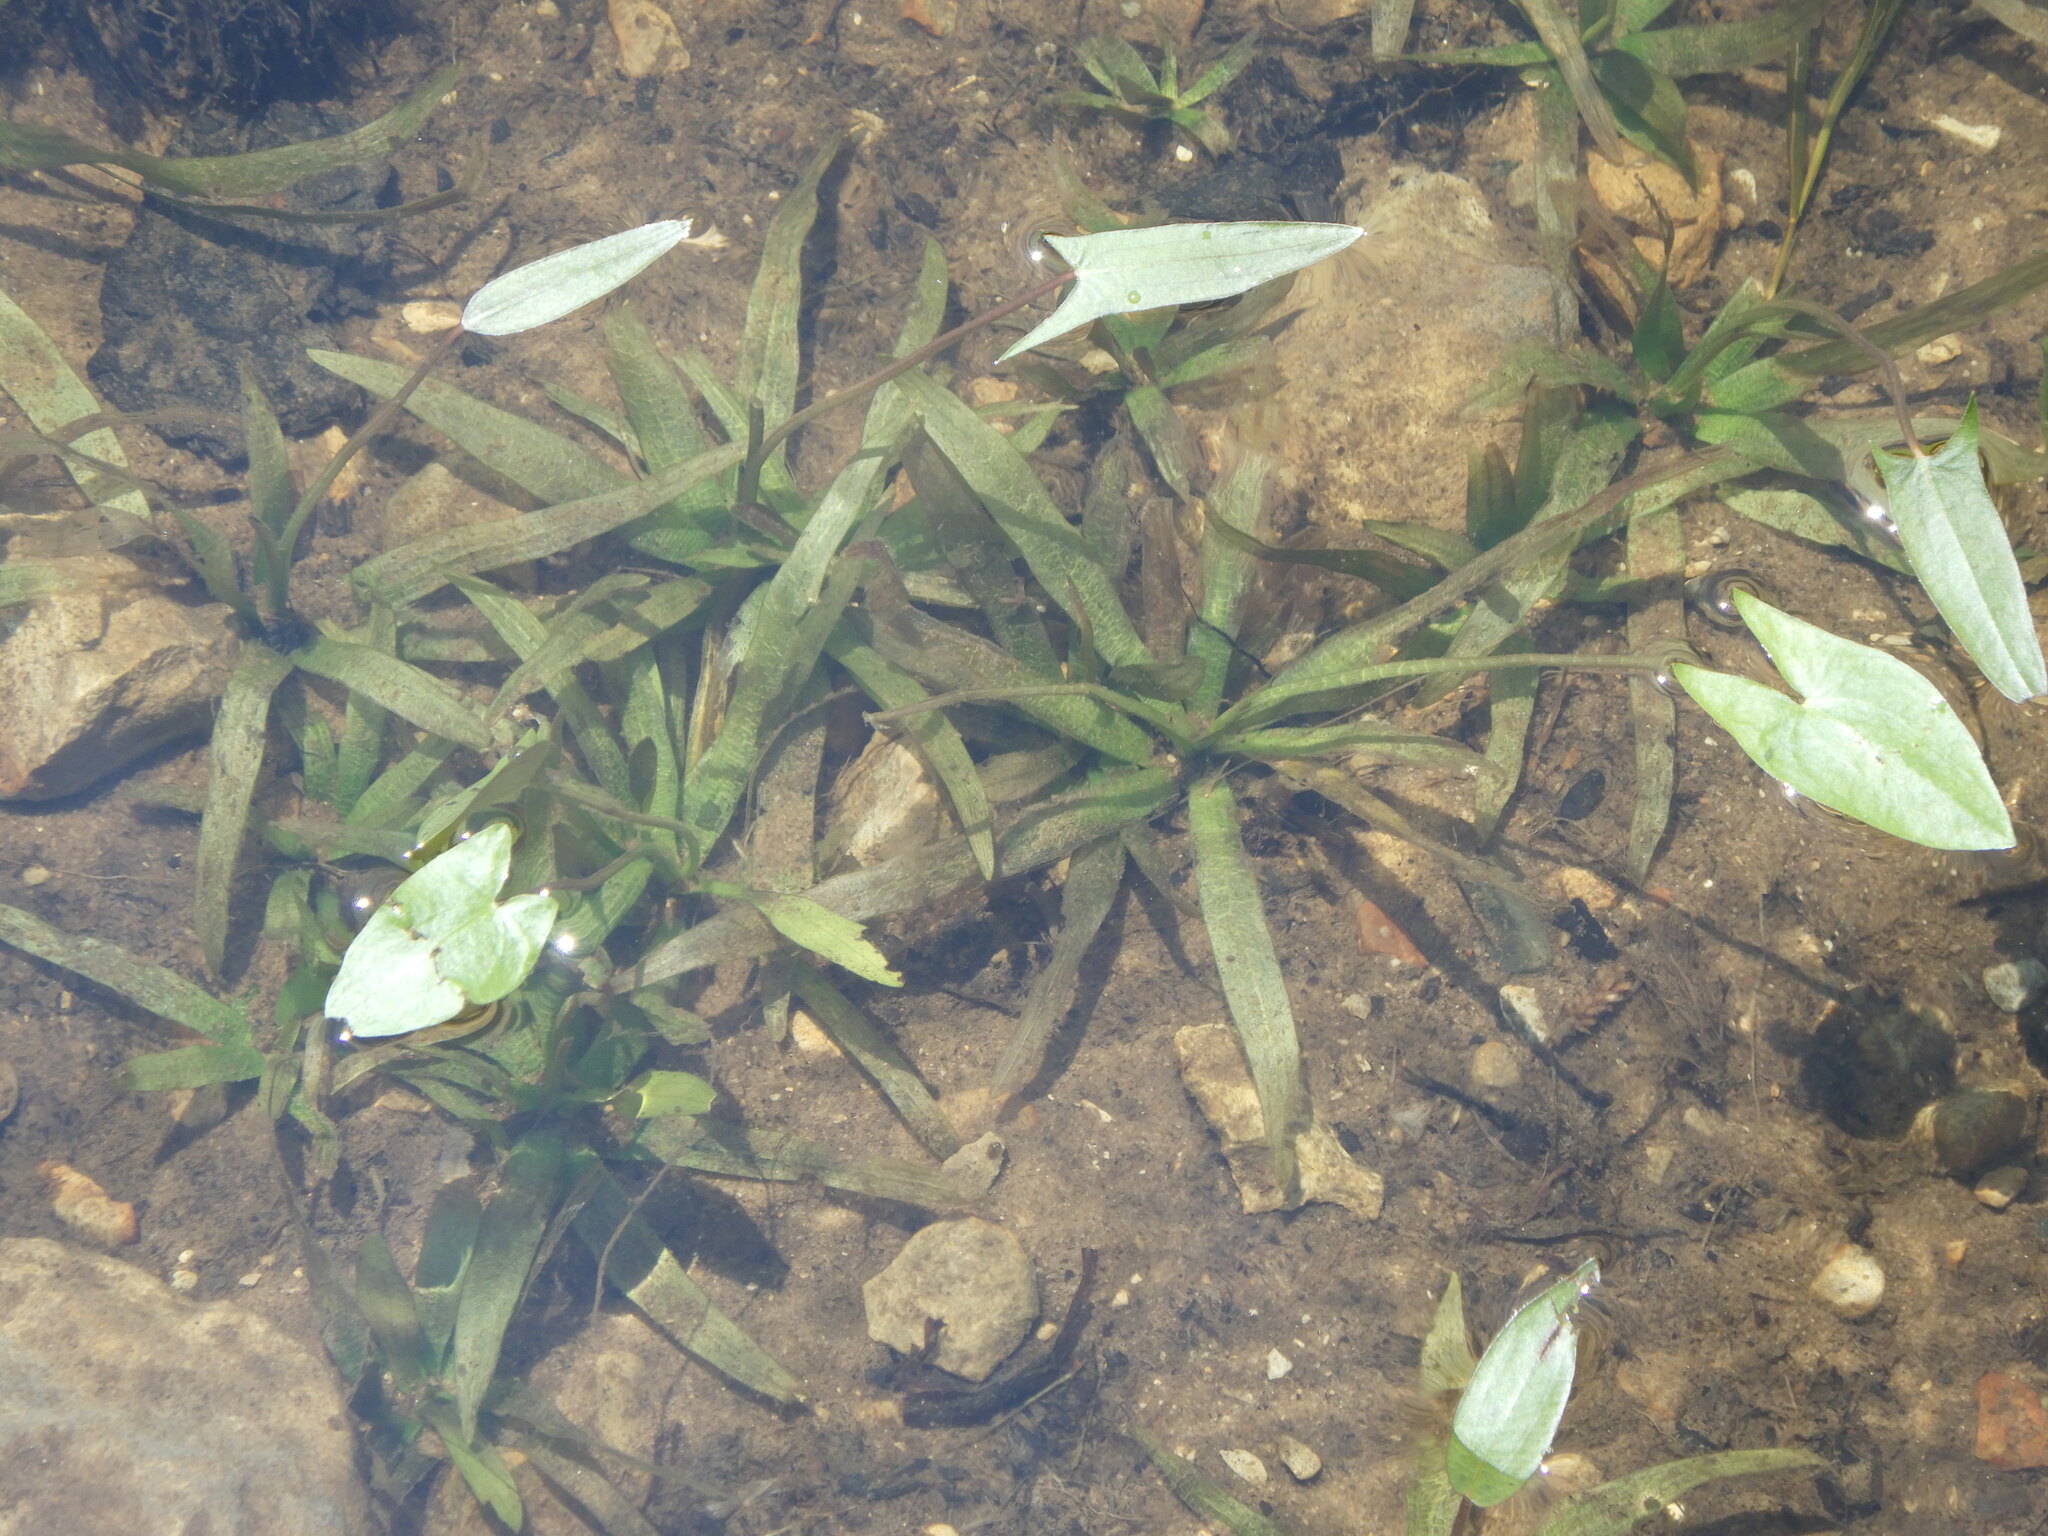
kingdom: Plantae
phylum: Tracheophyta
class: Liliopsida
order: Alismatales
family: Alismataceae
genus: Sagittaria
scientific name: Sagittaria cuneata
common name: Northern arrowhead
